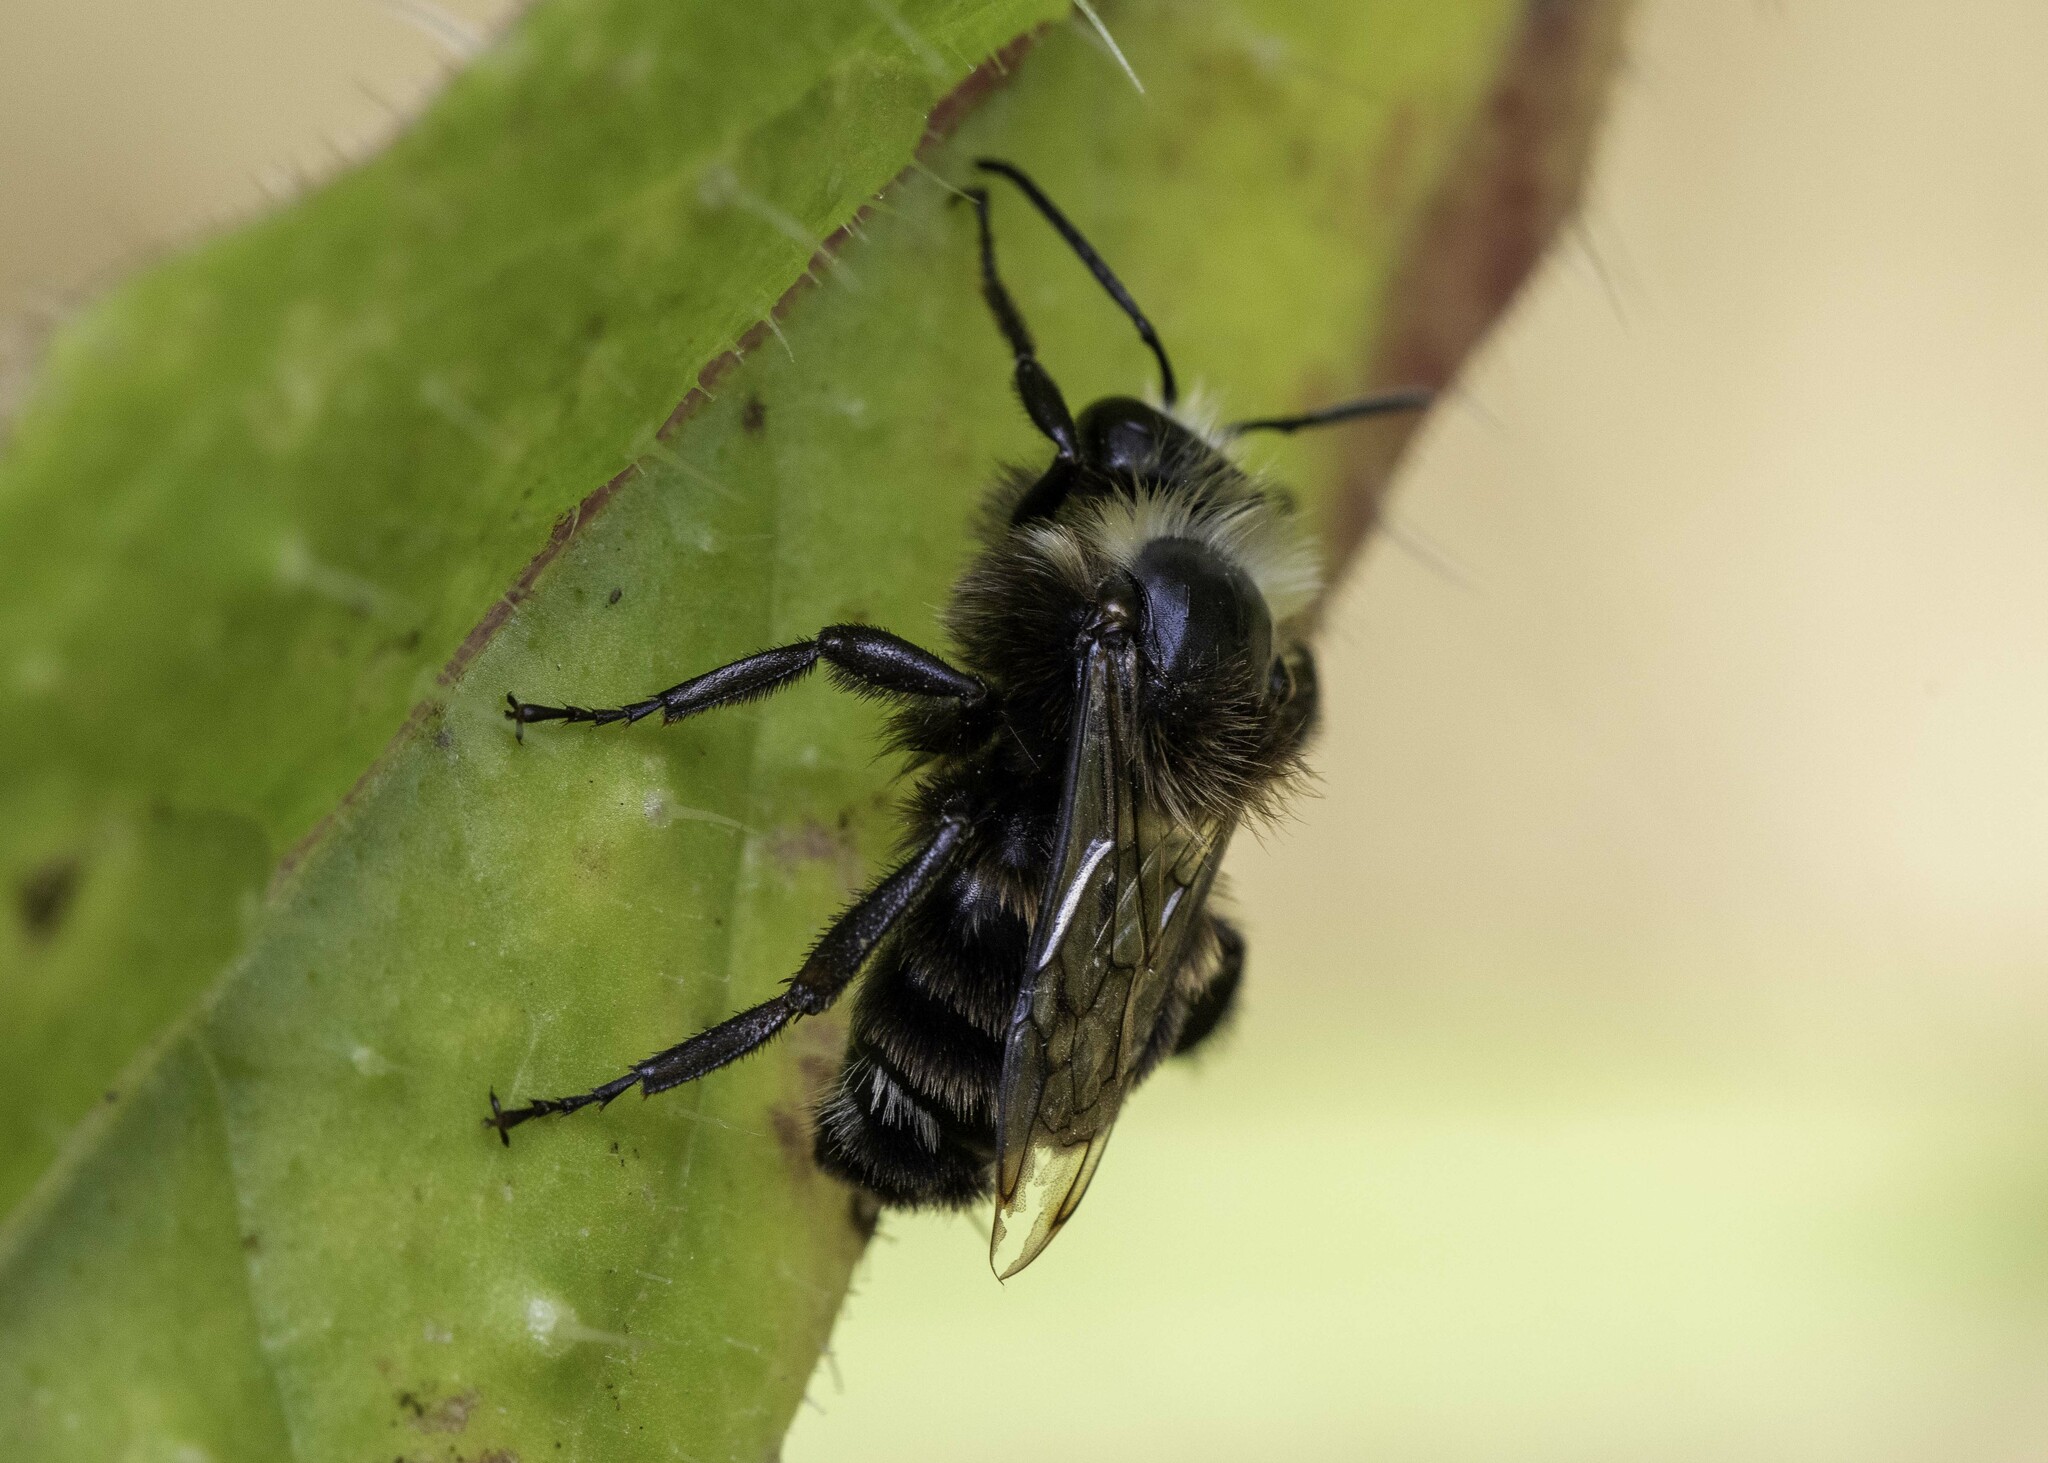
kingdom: Animalia
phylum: Arthropoda
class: Insecta
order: Hymenoptera
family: Apidae
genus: Bombus
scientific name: Bombus vosnesenskii
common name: Vosnesensky bumble bee
